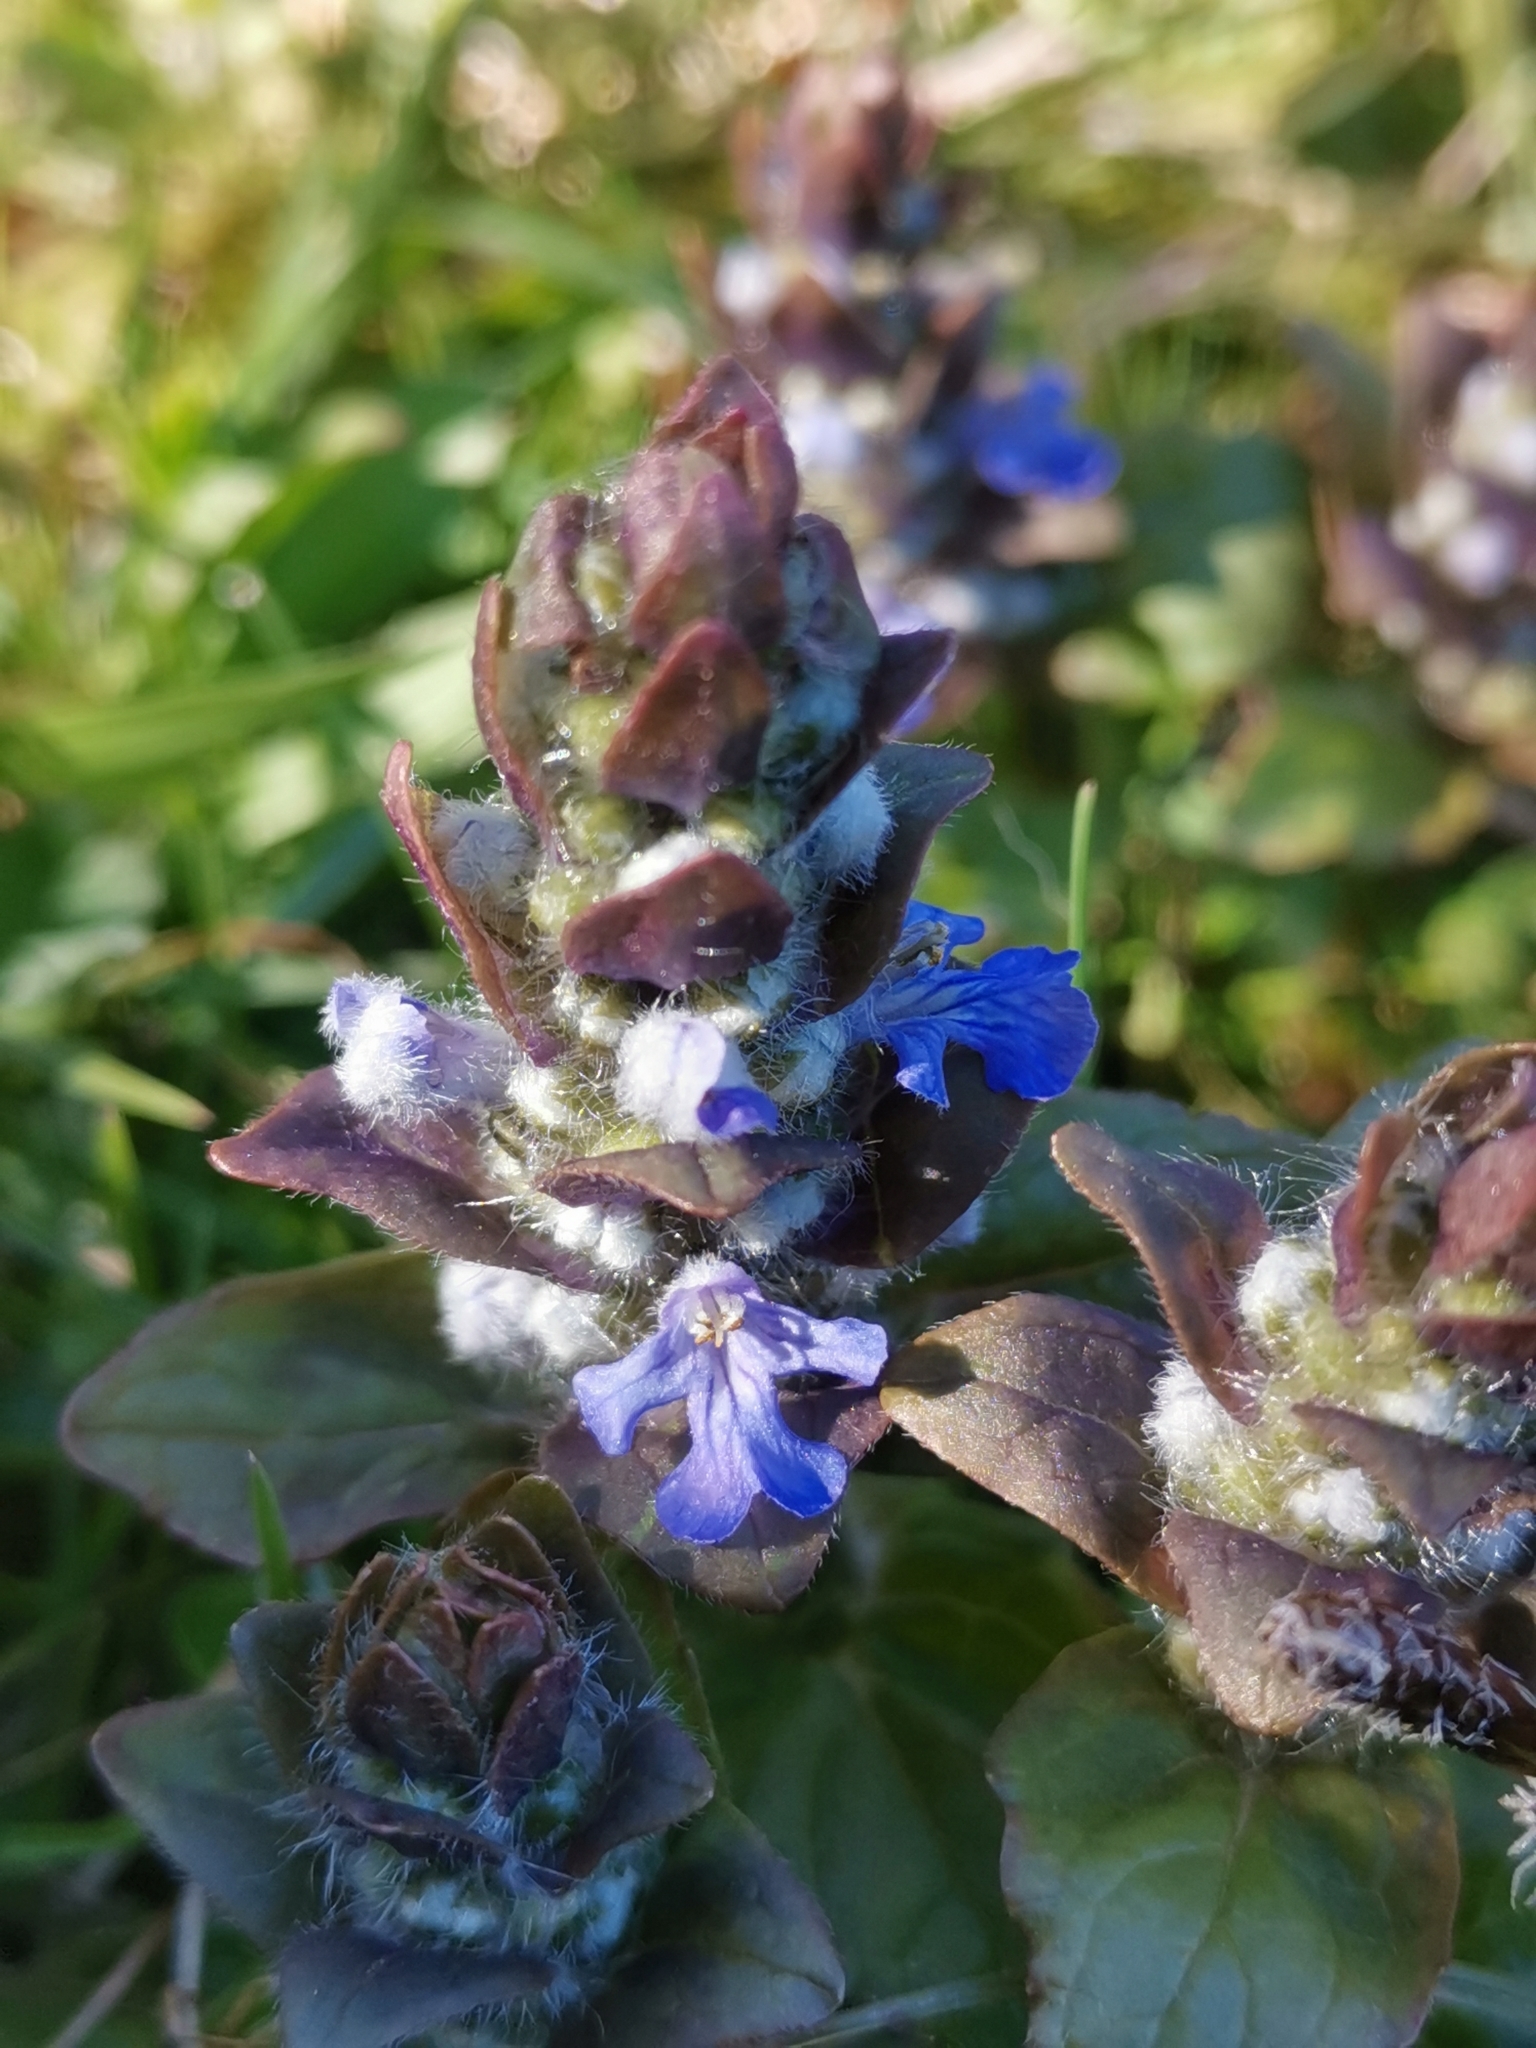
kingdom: Plantae
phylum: Tracheophyta
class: Magnoliopsida
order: Lamiales
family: Lamiaceae
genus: Ajuga
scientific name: Ajuga reptans
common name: Bugle
